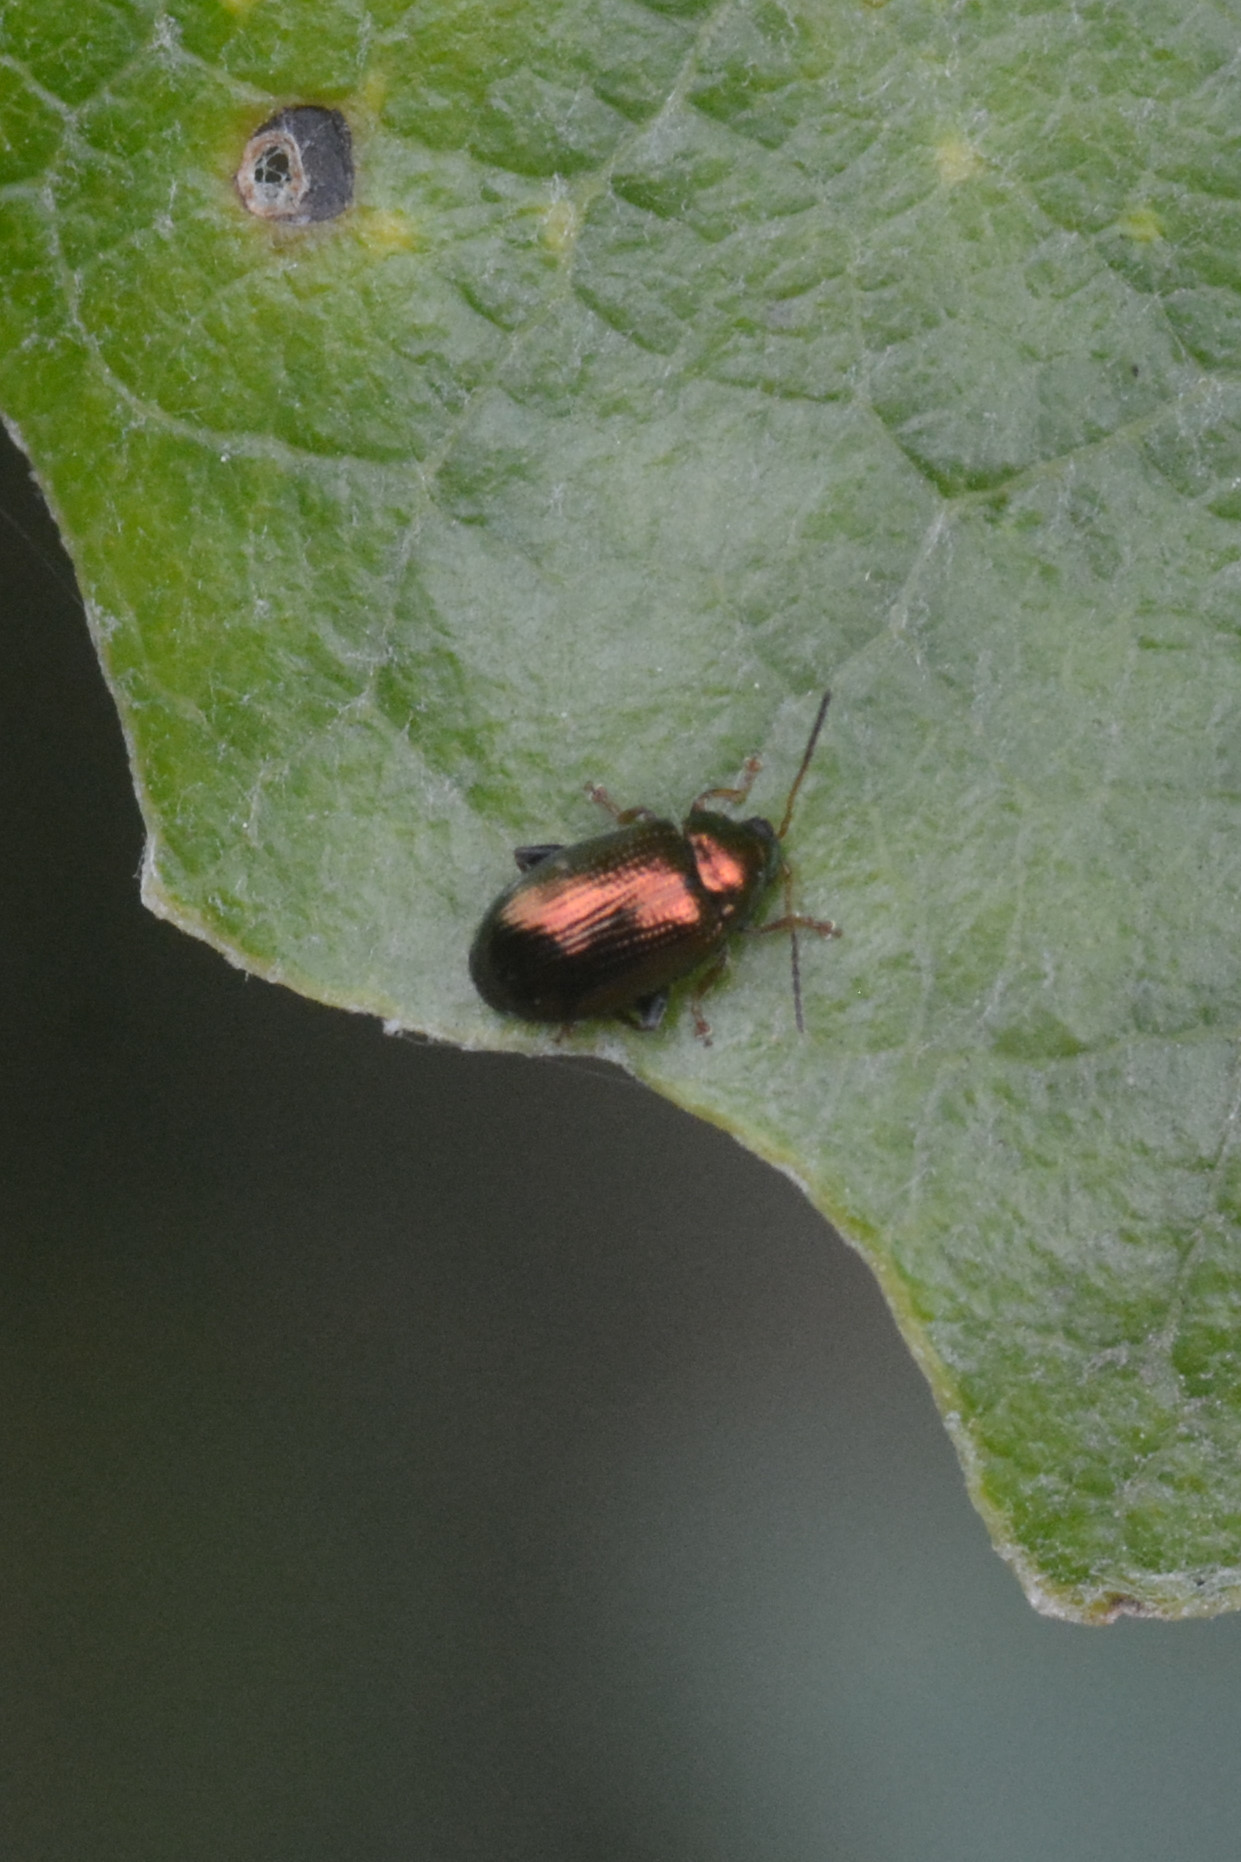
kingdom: Animalia
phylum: Arthropoda
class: Insecta
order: Coleoptera
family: Chrysomelidae
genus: Crepidodera
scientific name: Crepidodera aurea
